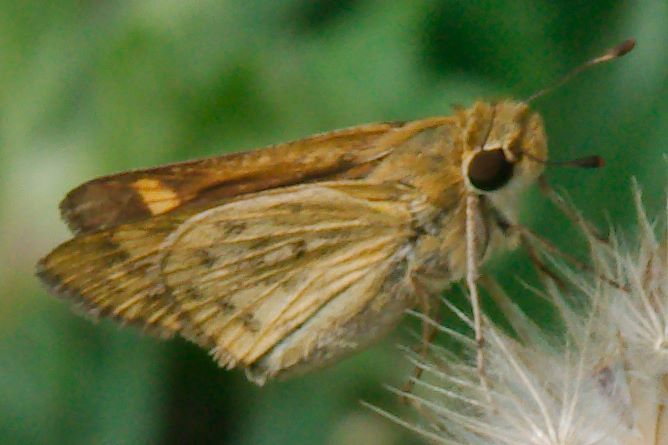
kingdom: Animalia
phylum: Arthropoda
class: Insecta
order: Lepidoptera
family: Hesperiidae
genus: Hylephila
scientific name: Hylephila phyleus
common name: Fiery skipper
